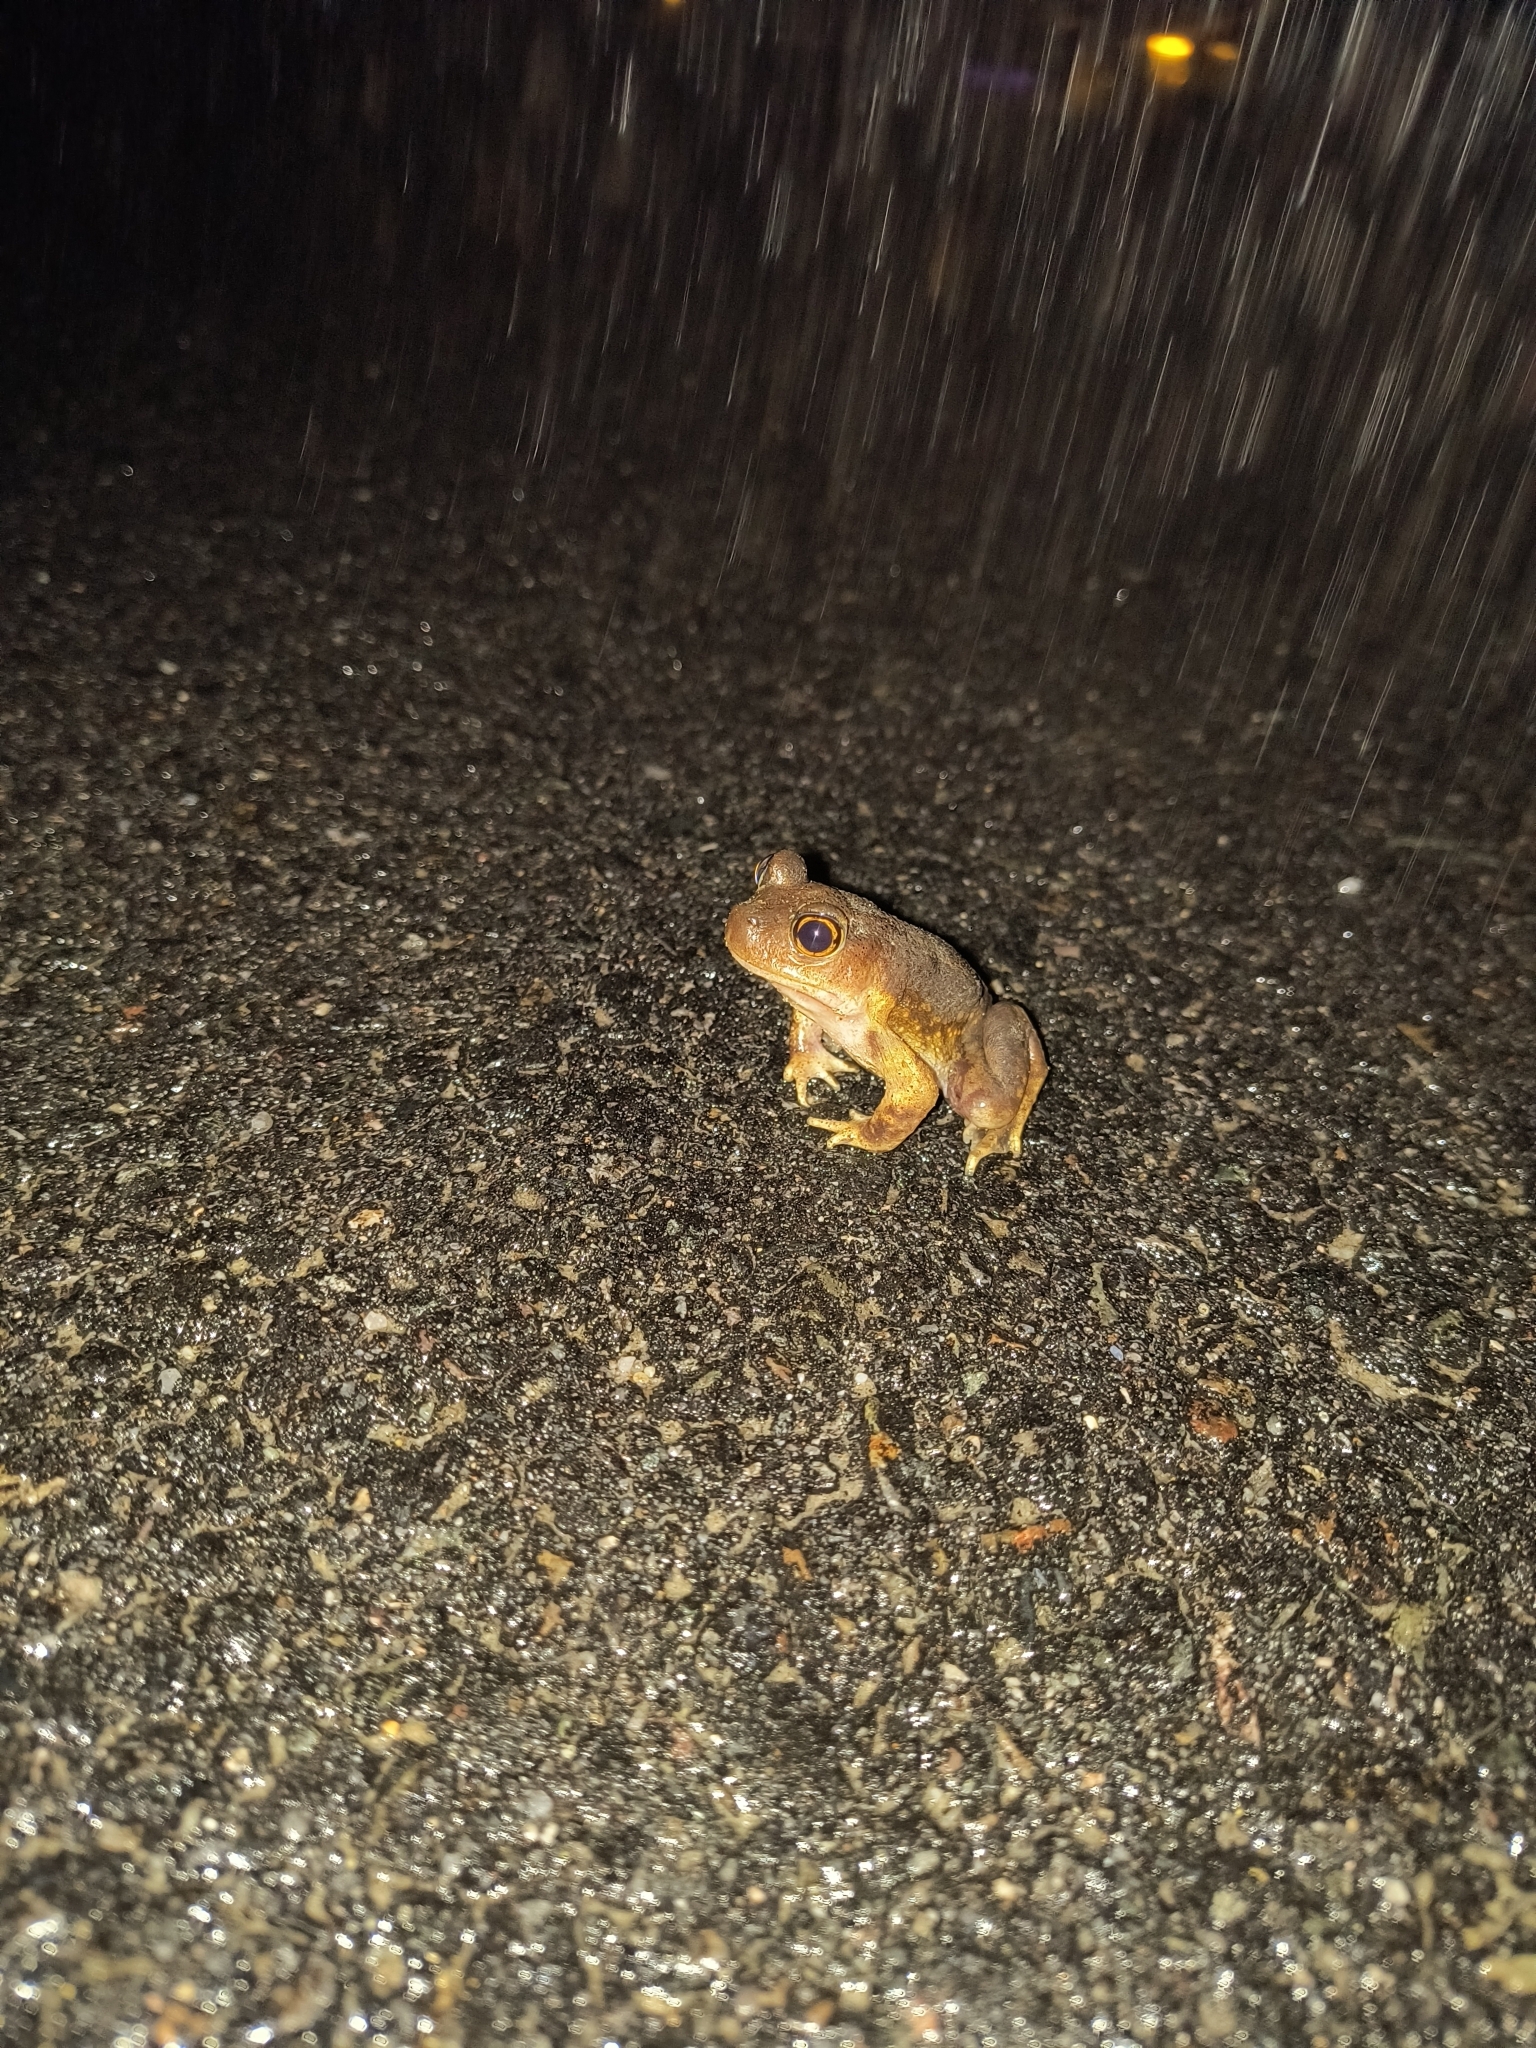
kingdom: Animalia
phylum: Chordata
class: Amphibia
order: Anura
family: Scaphiopodidae
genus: Scaphiopus
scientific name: Scaphiopus holbrookii
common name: Eastern spadefoot toad
